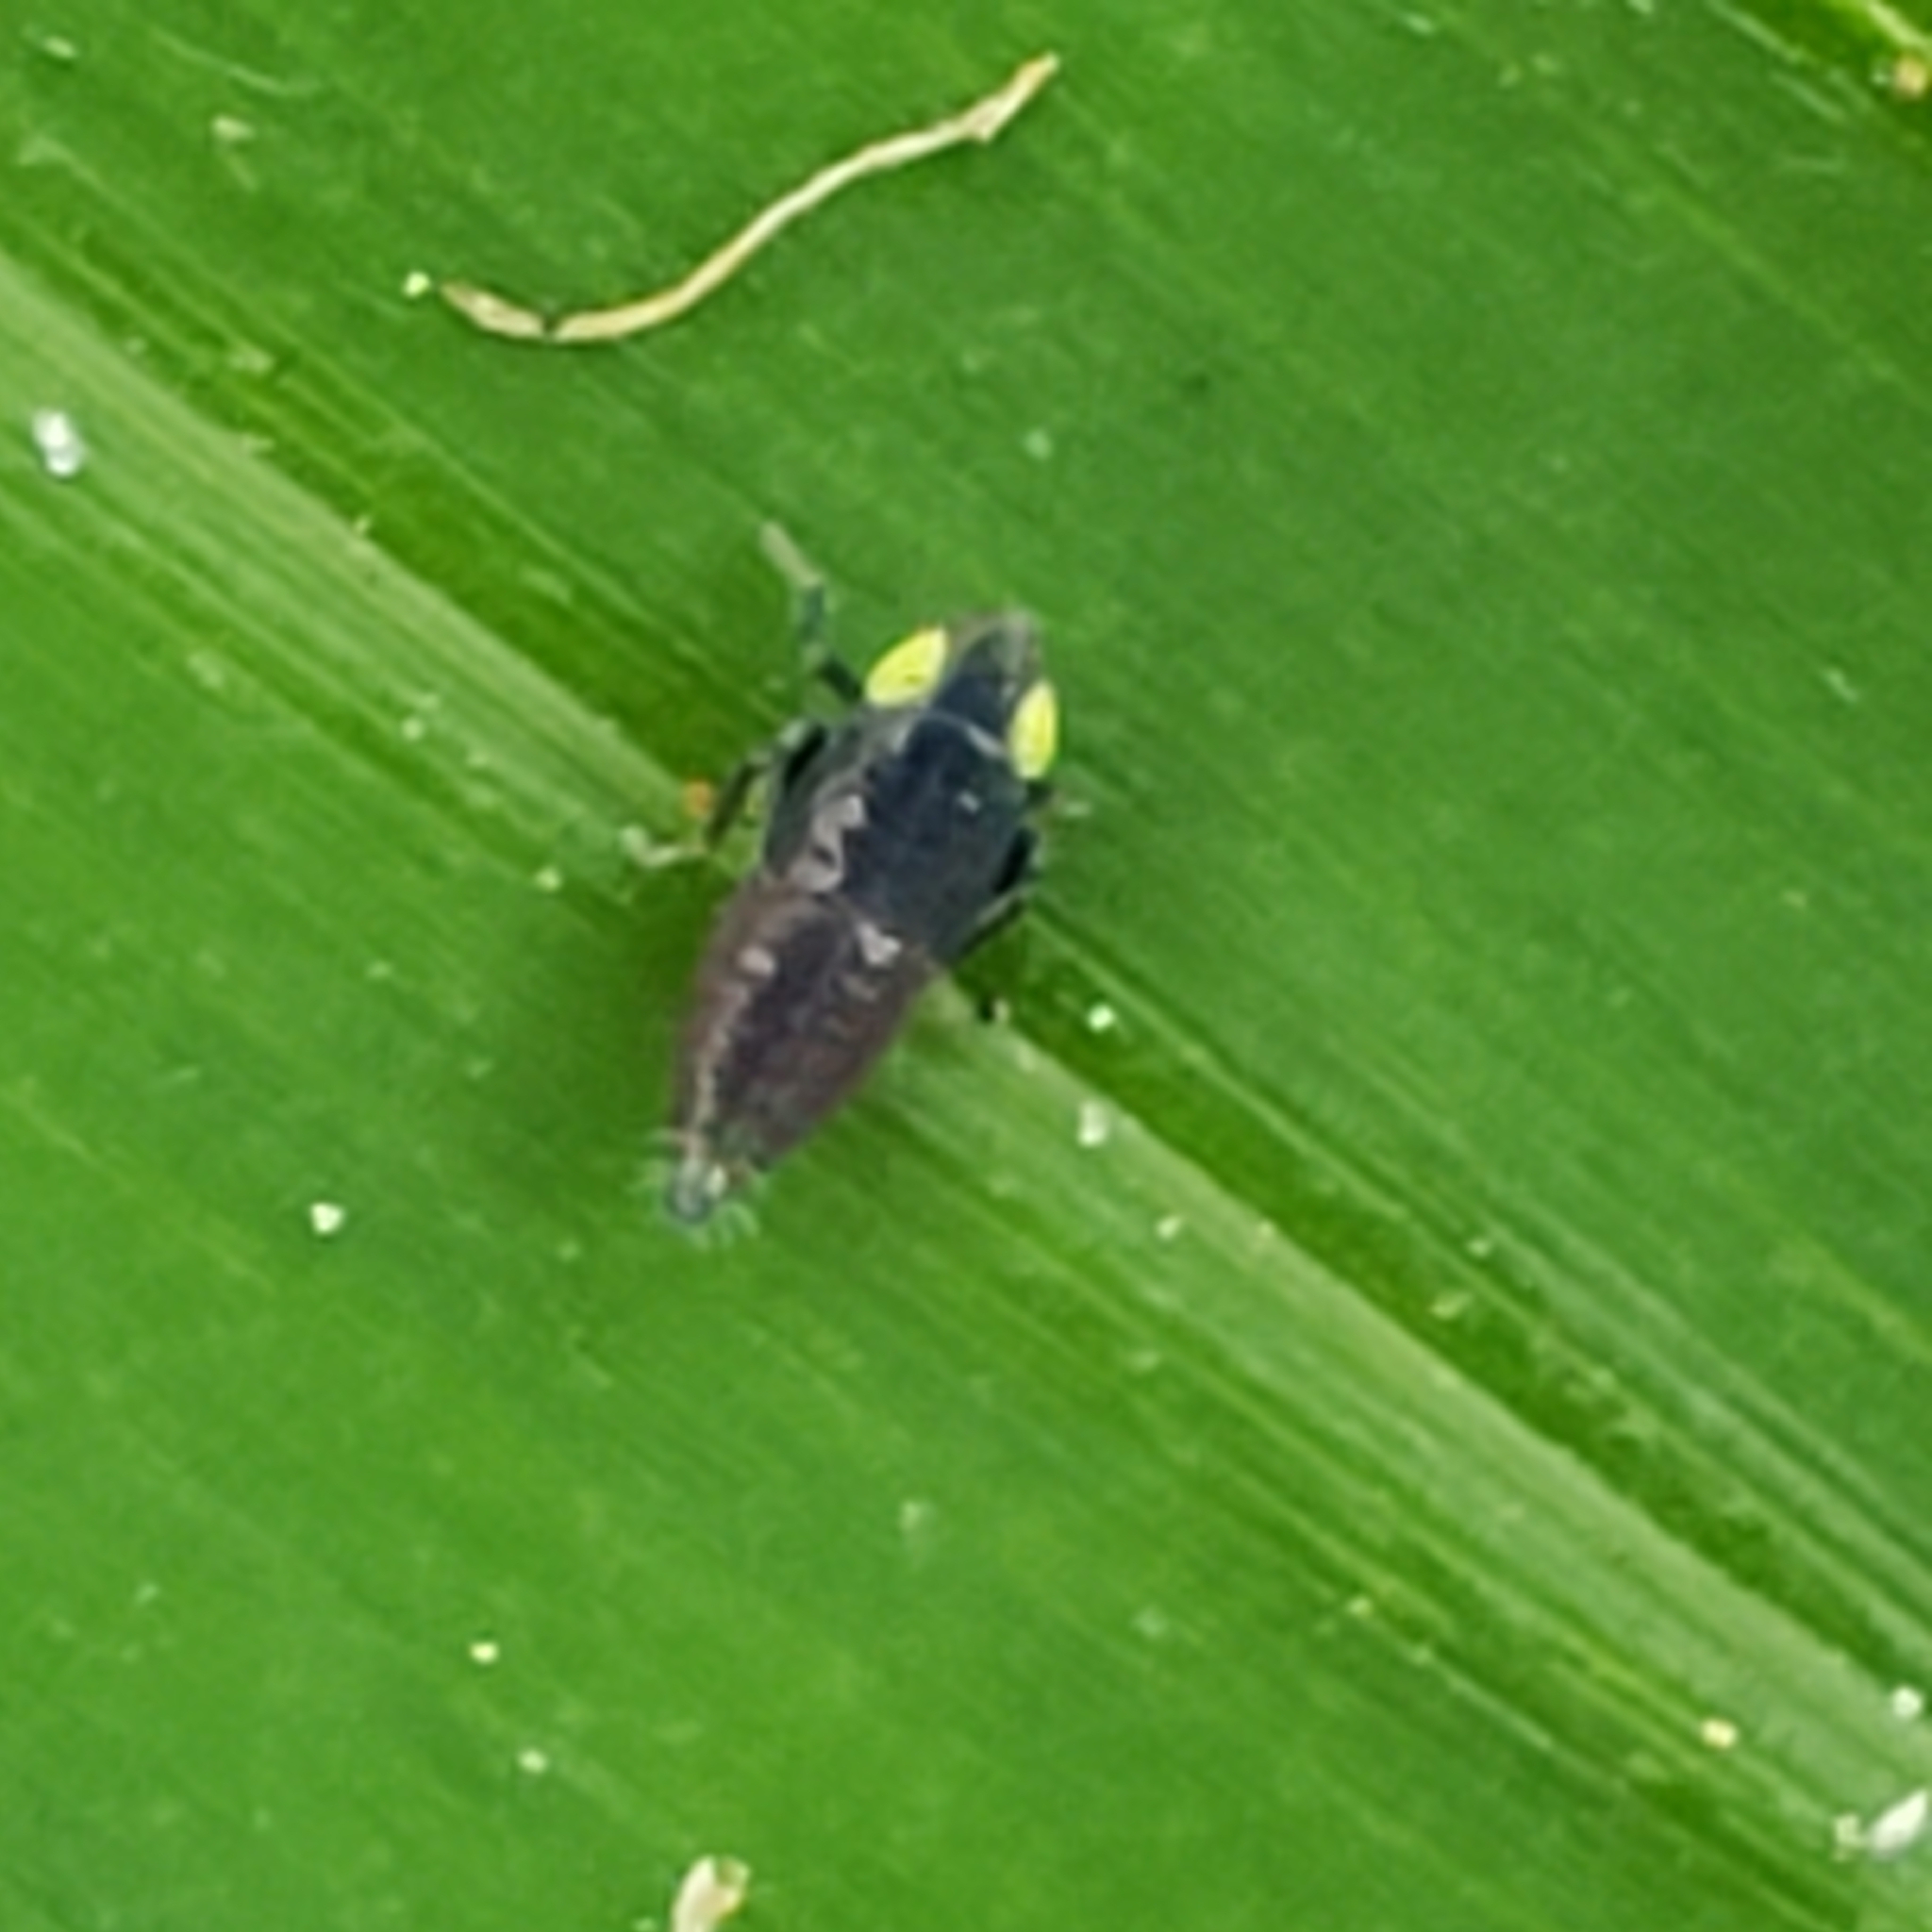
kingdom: Animalia
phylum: Arthropoda
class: Insecta
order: Hemiptera
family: Cicadellidae
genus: Stirellus
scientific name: Stirellus bicolor
